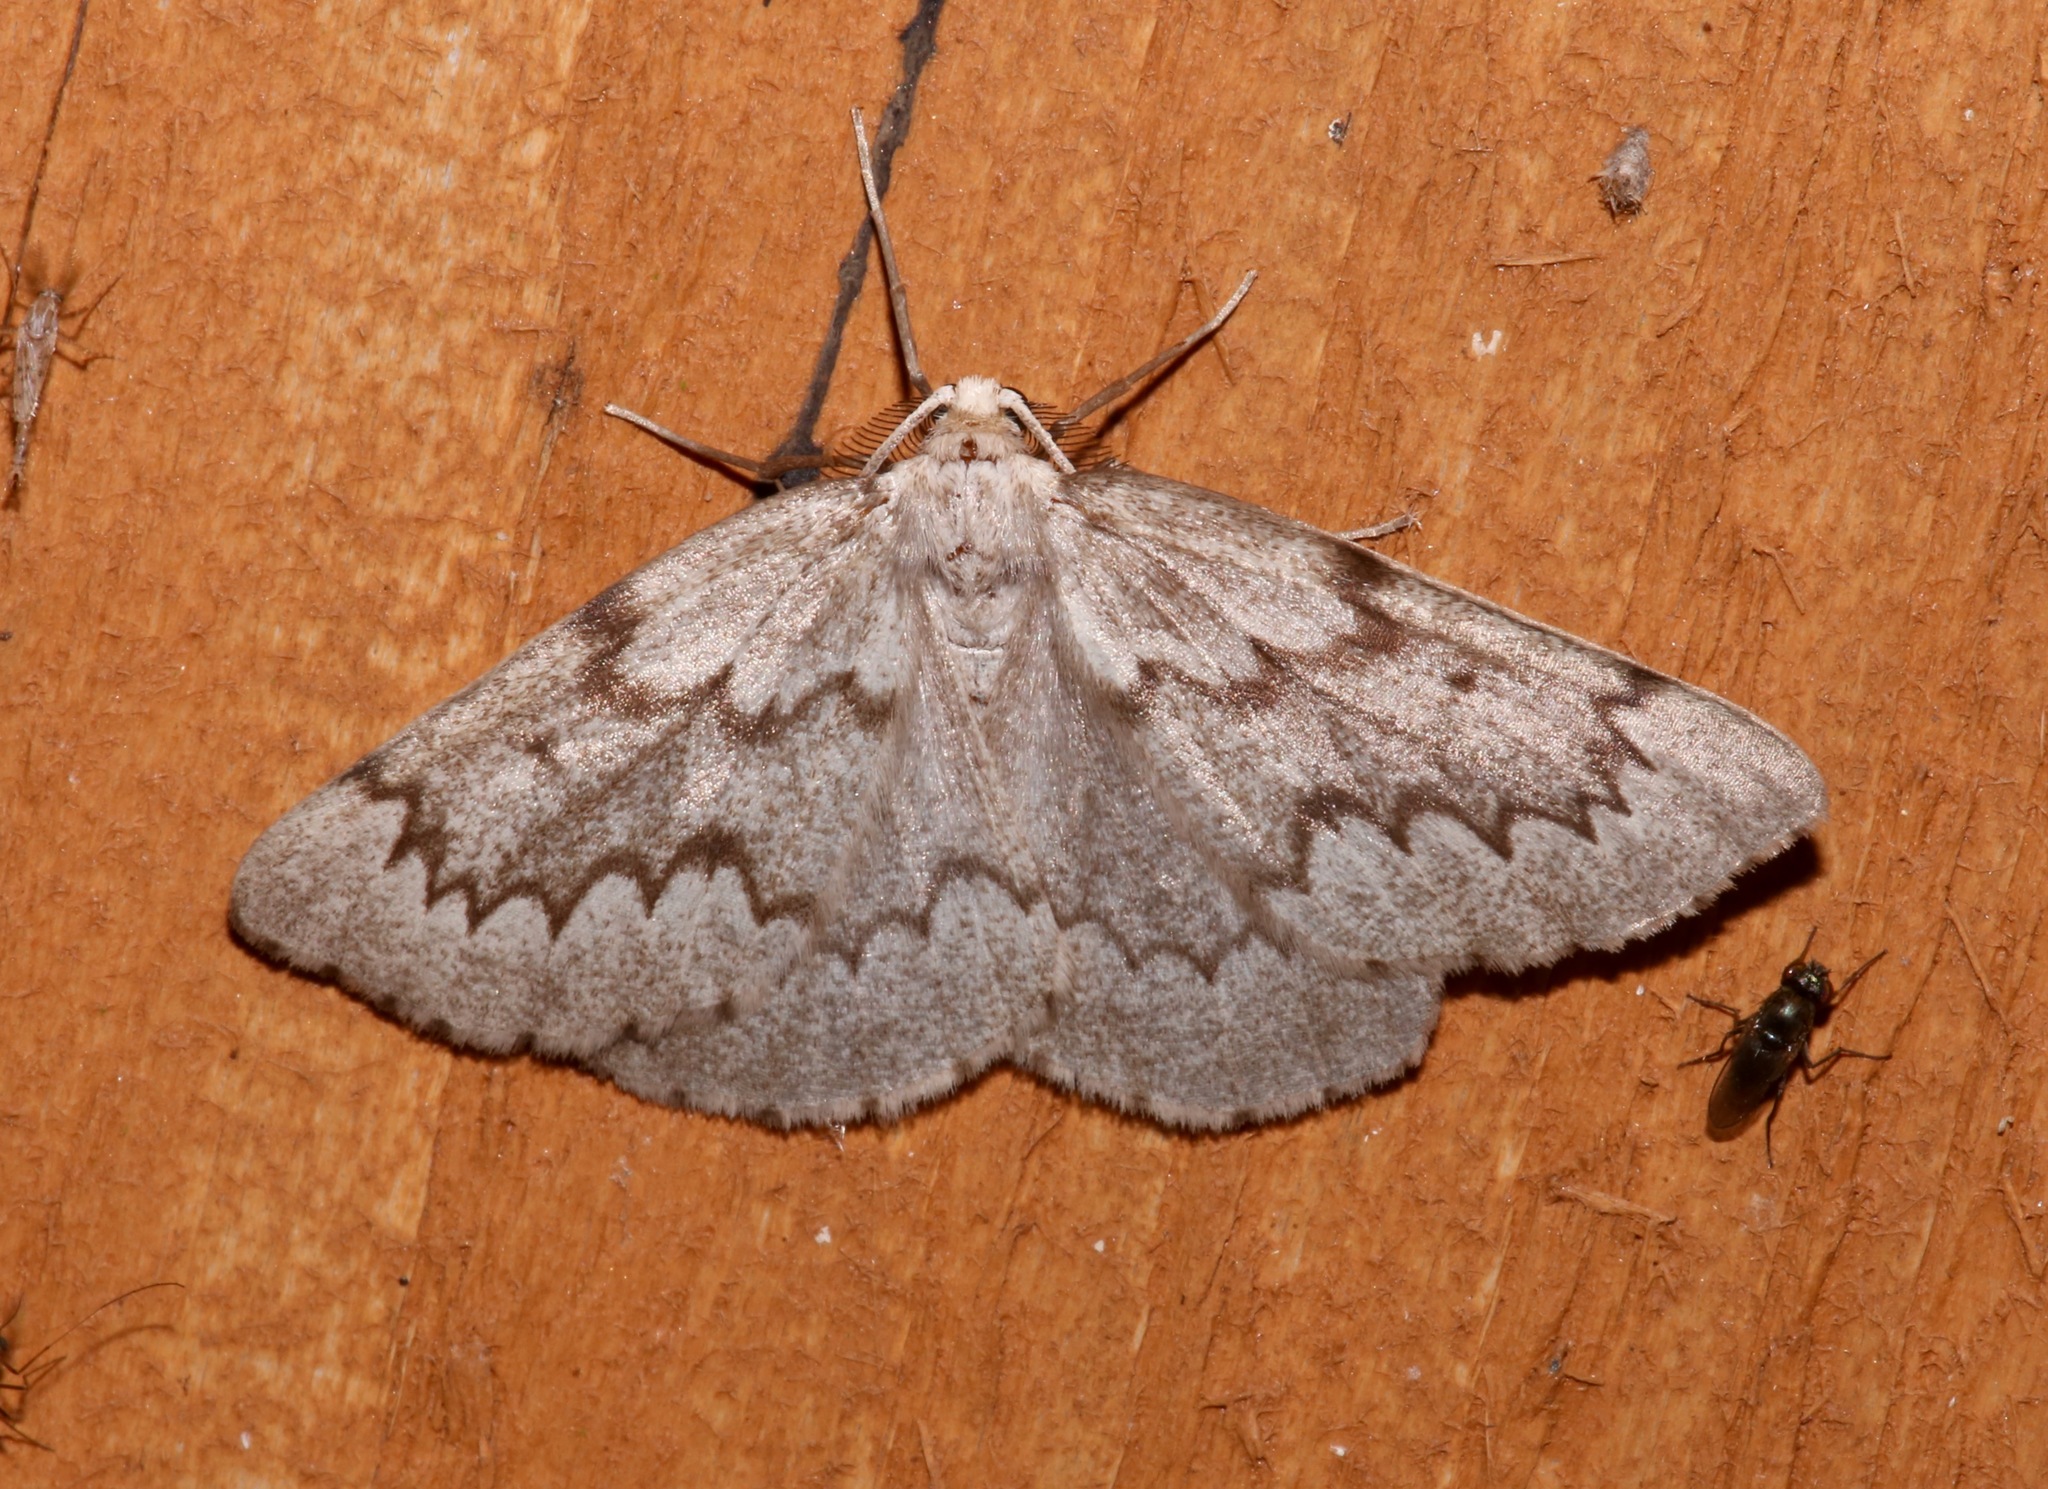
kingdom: Animalia
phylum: Arthropoda
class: Insecta
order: Lepidoptera
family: Geometridae
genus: Nepytia
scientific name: Nepytia semiclusaria
